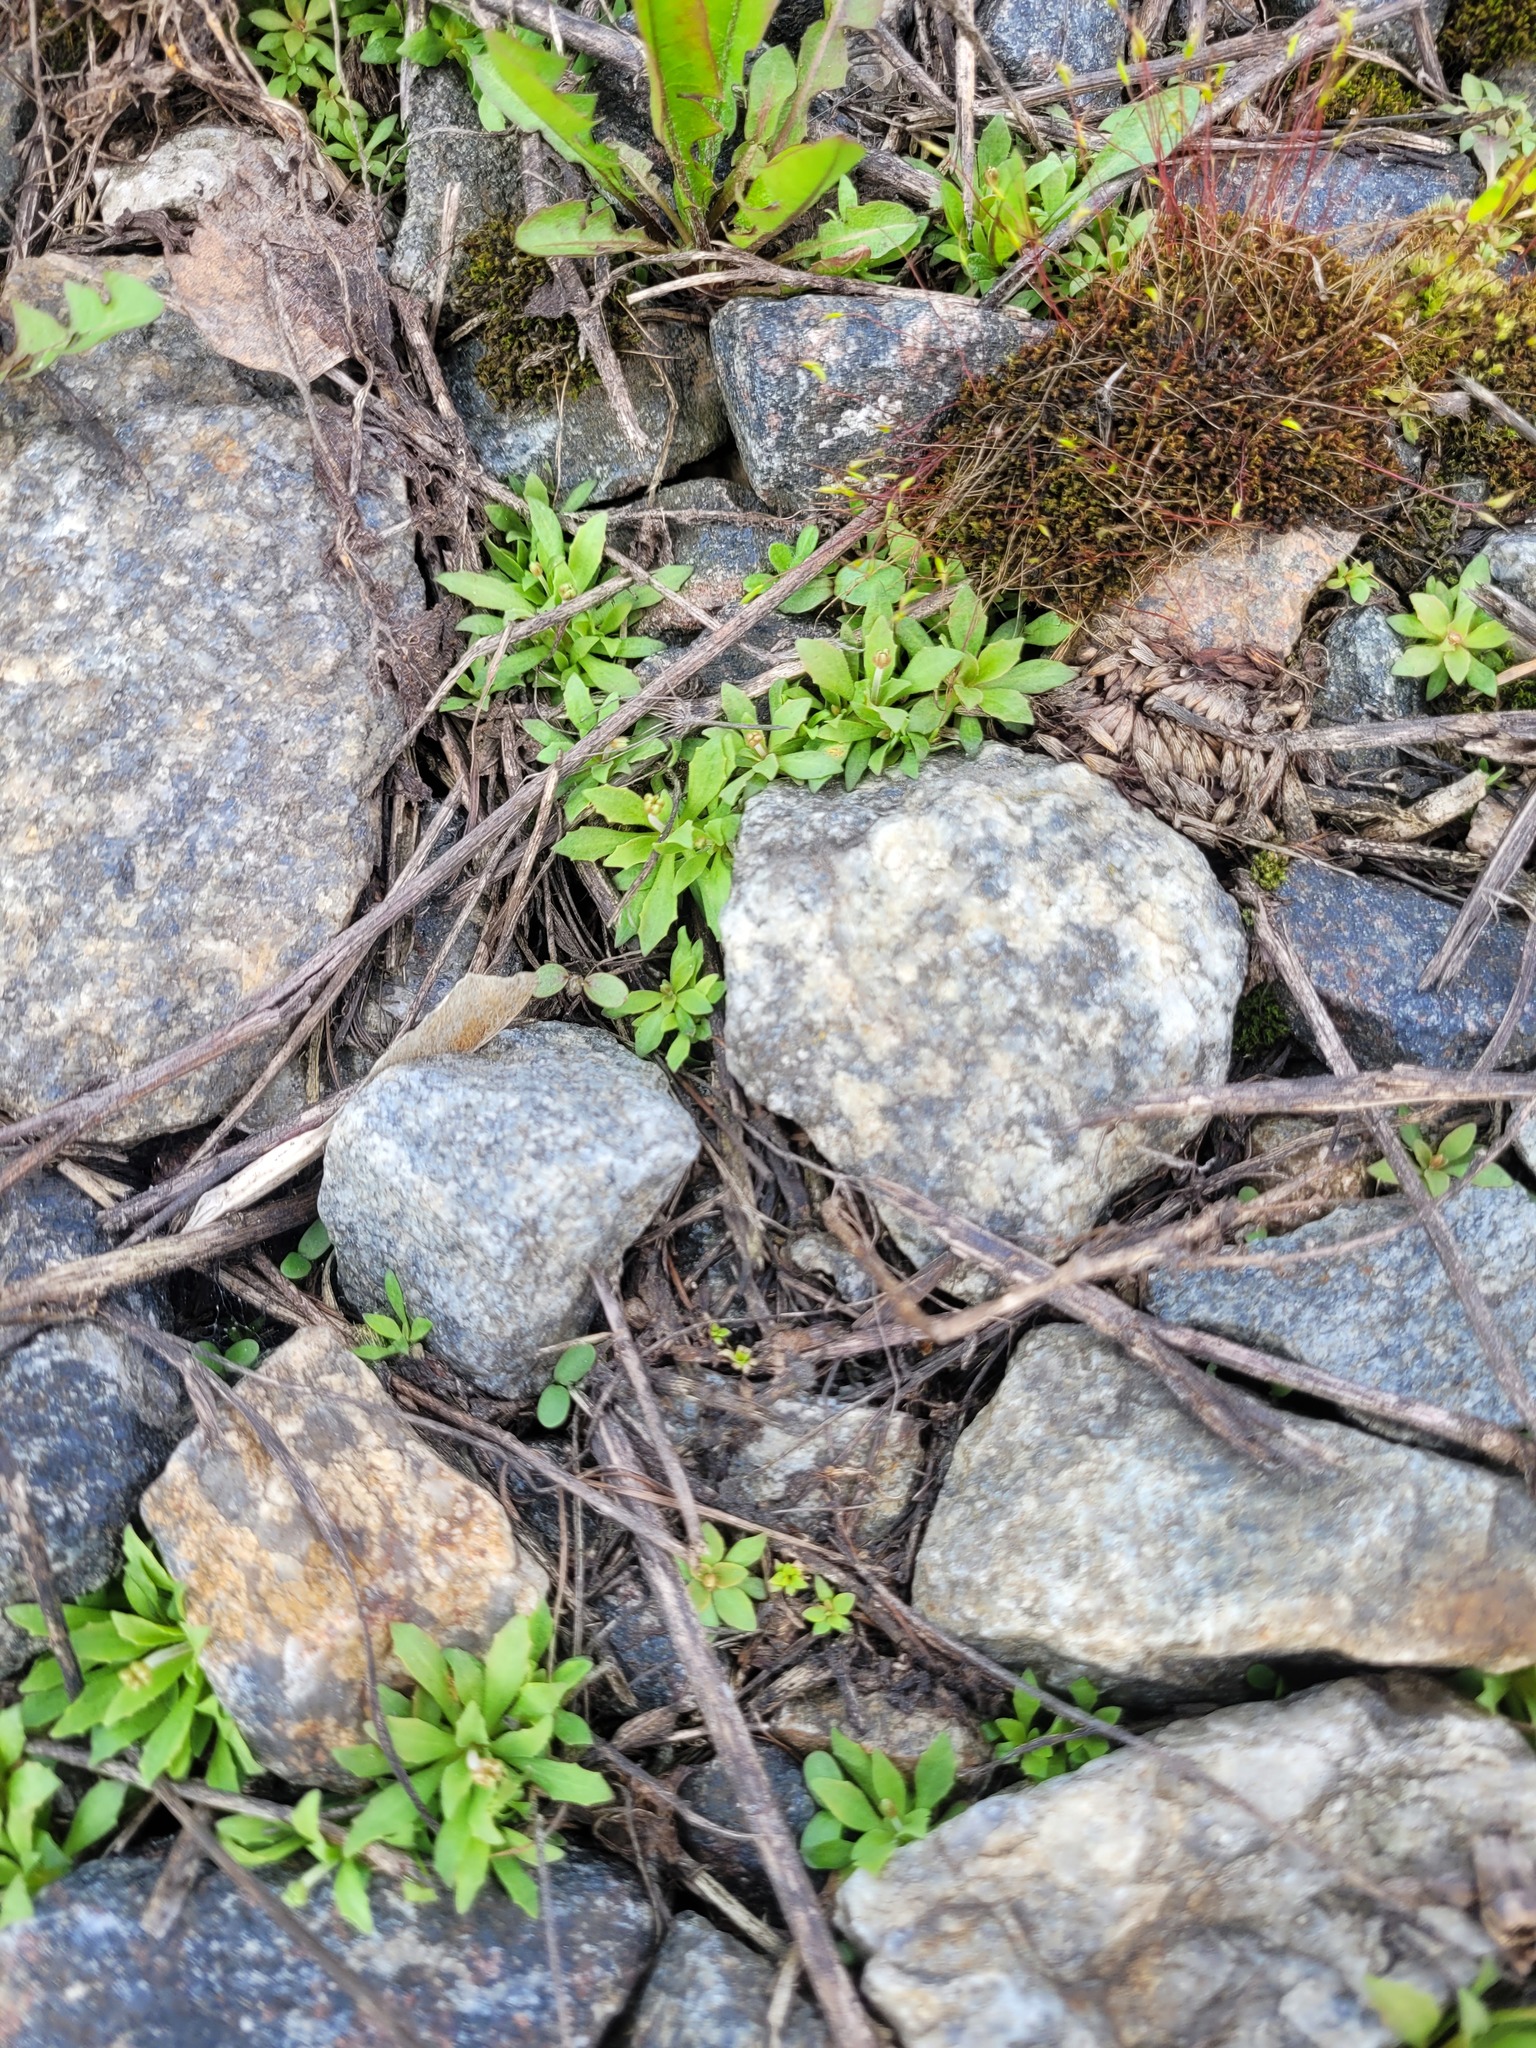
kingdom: Plantae
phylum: Tracheophyta
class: Magnoliopsida
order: Ericales
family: Primulaceae
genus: Androsace
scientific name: Androsace septentrionalis
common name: Hairy northern fairy-candelabra
